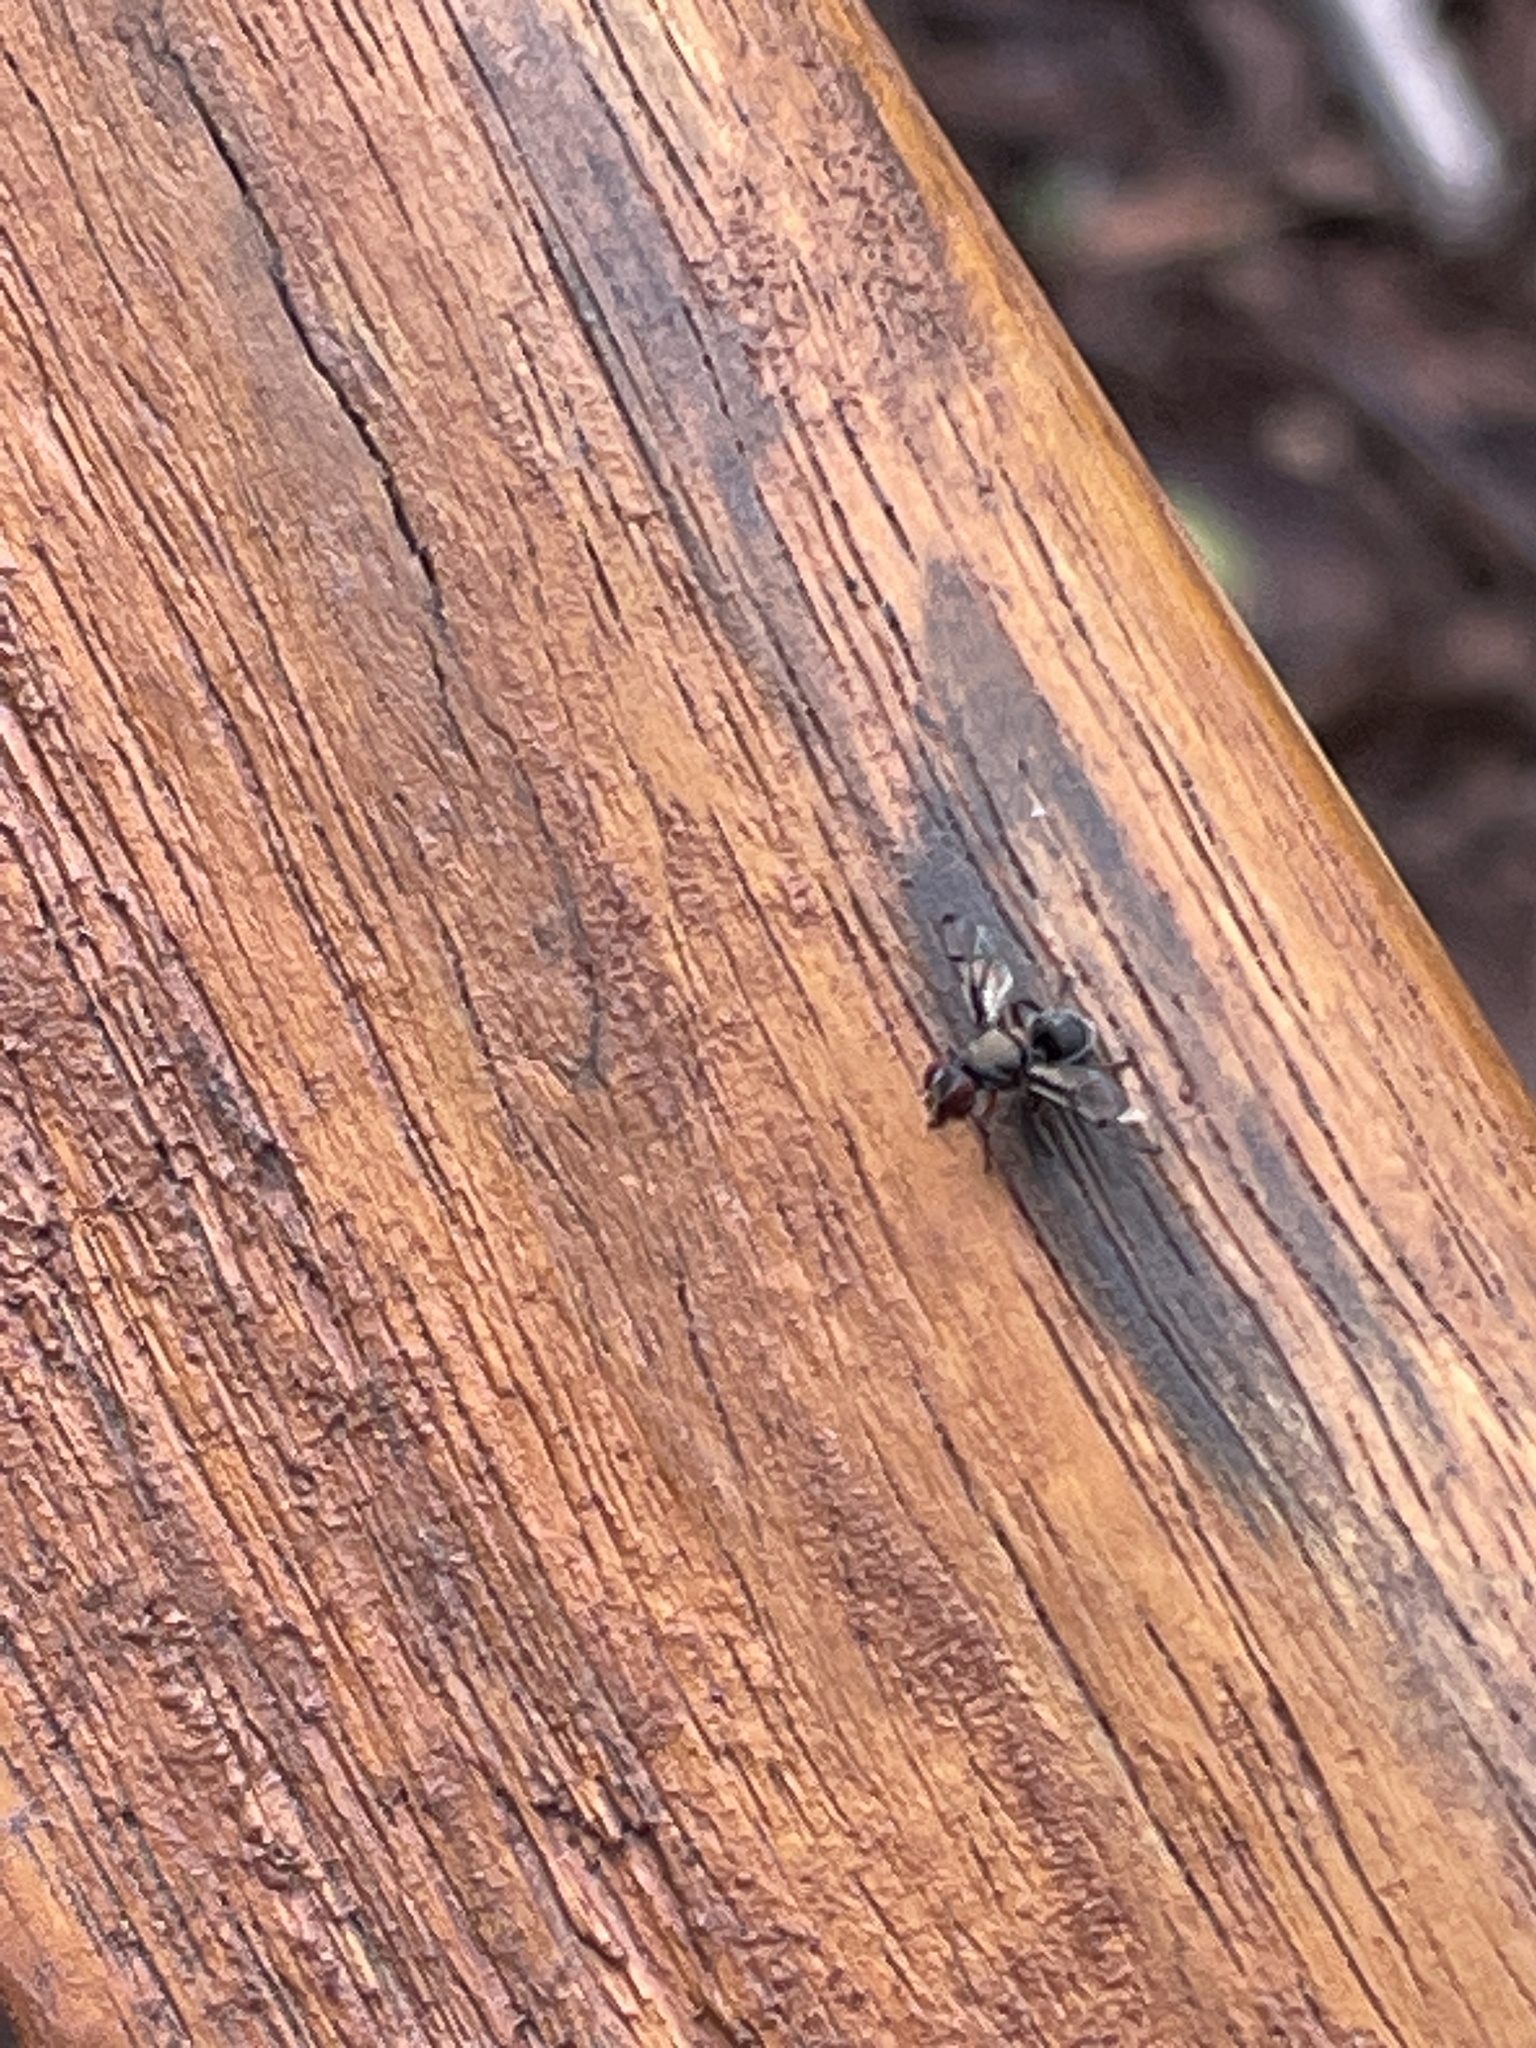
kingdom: Animalia
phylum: Arthropoda
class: Insecta
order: Diptera
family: Platystomatidae
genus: Pogonortalis
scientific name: Pogonortalis doclea
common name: Boatman fly
